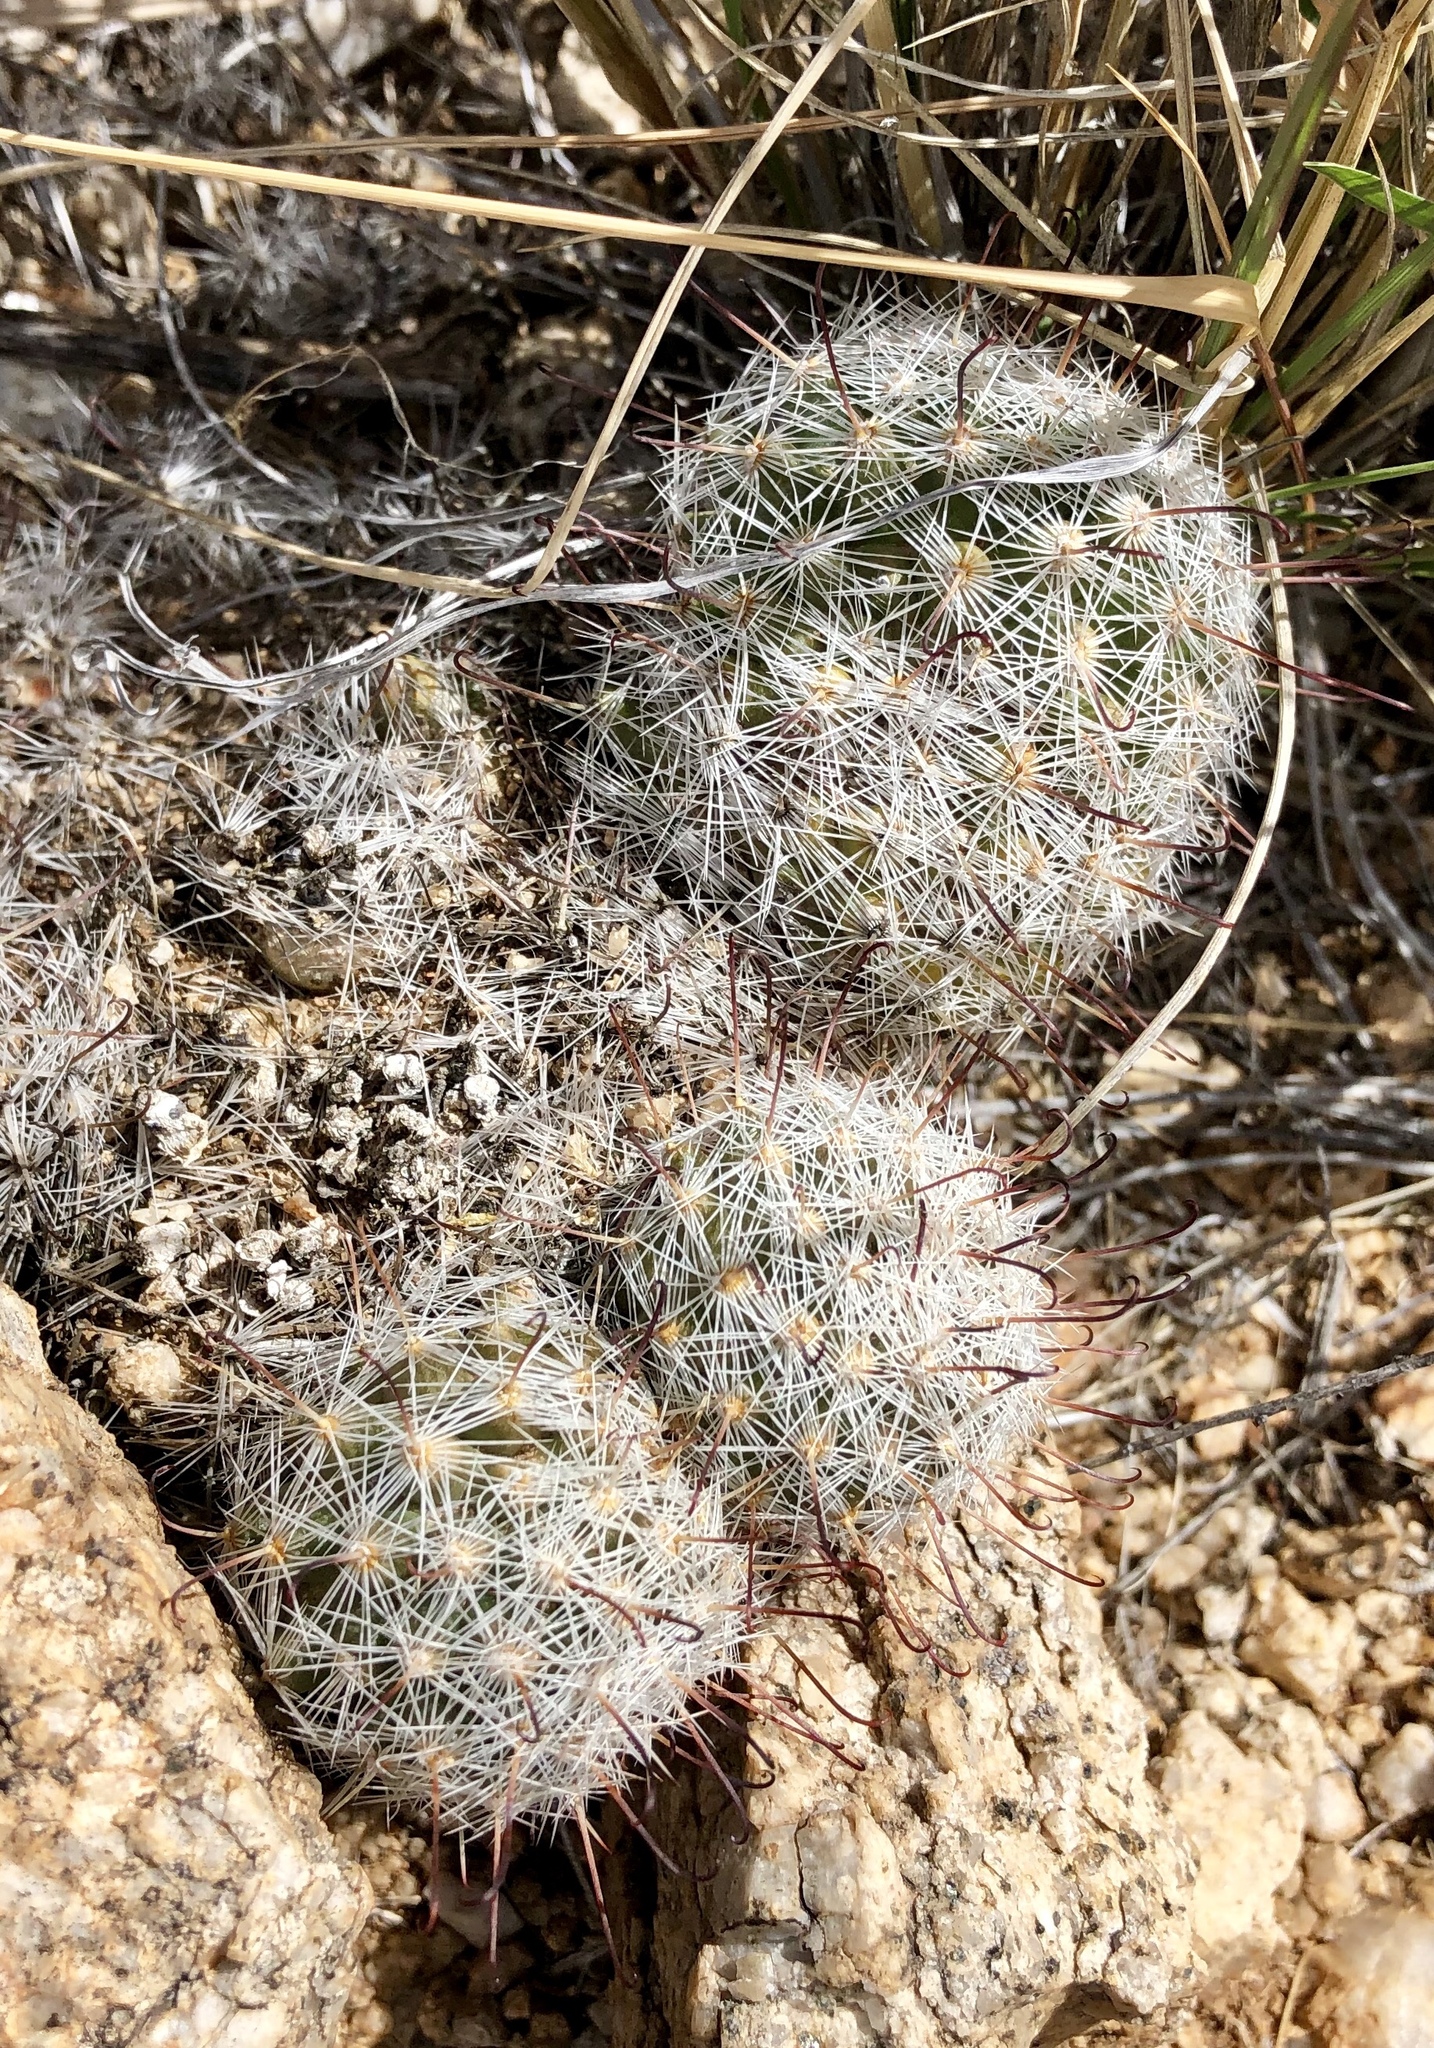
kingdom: Plantae
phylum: Tracheophyta
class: Magnoliopsida
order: Caryophyllales
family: Cactaceae
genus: Cochemiea
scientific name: Cochemiea grahamii
